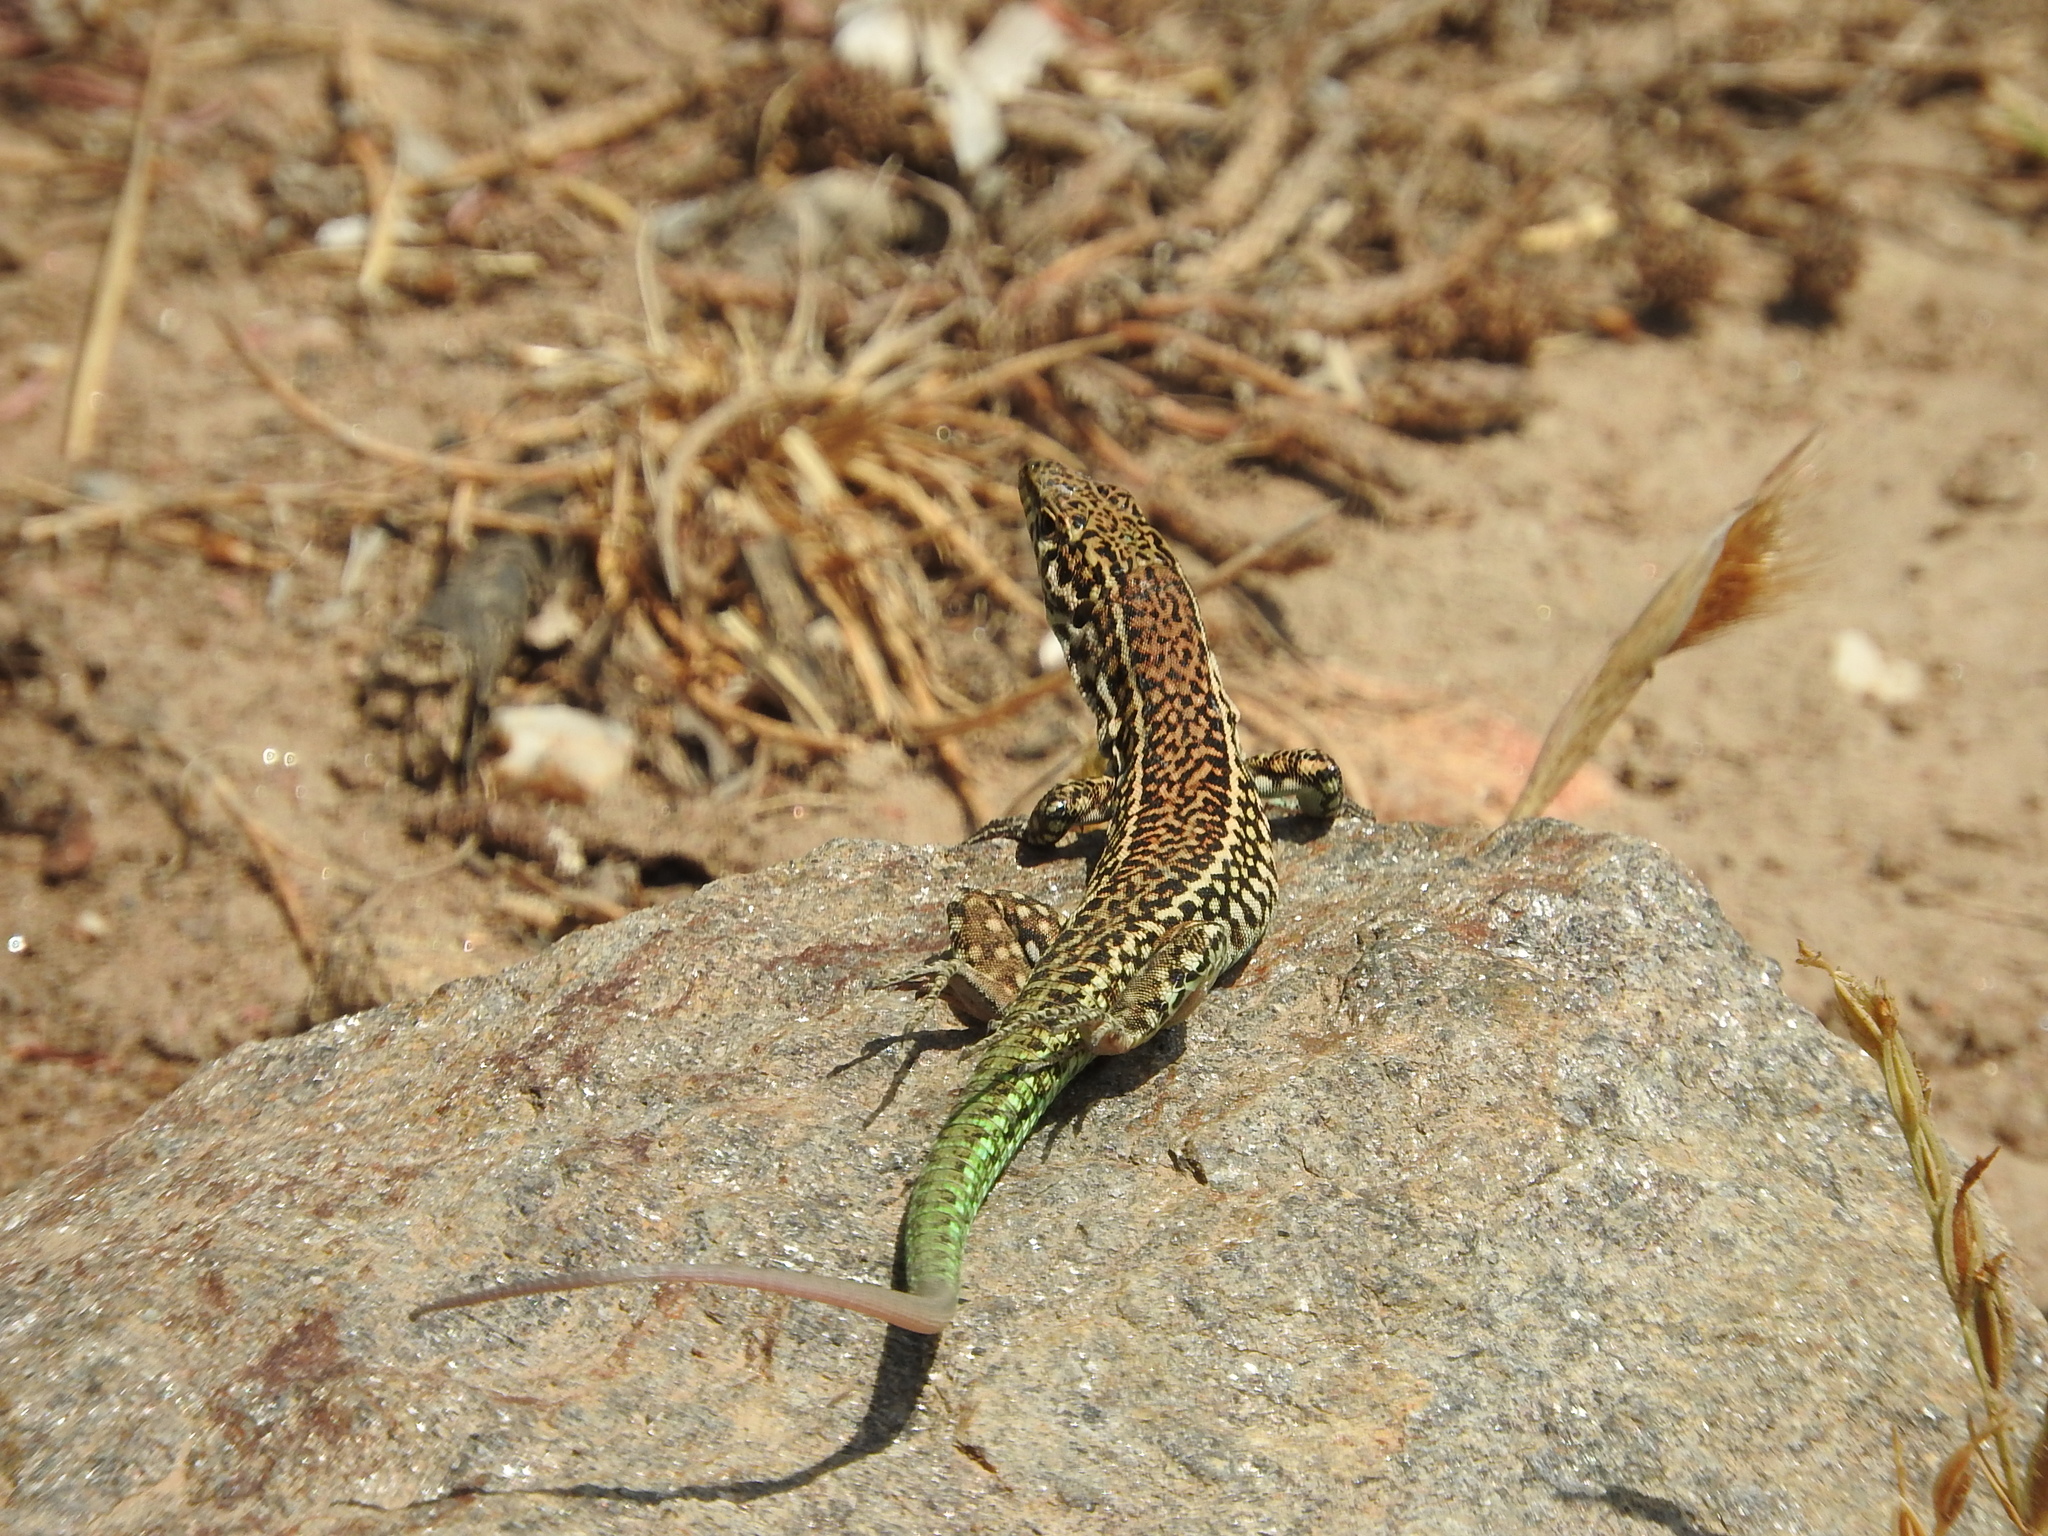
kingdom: Animalia
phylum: Chordata
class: Squamata
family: Lacertidae
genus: Podarcis
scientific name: Podarcis tiliguerta
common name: Tyrrhenian wall lizard
